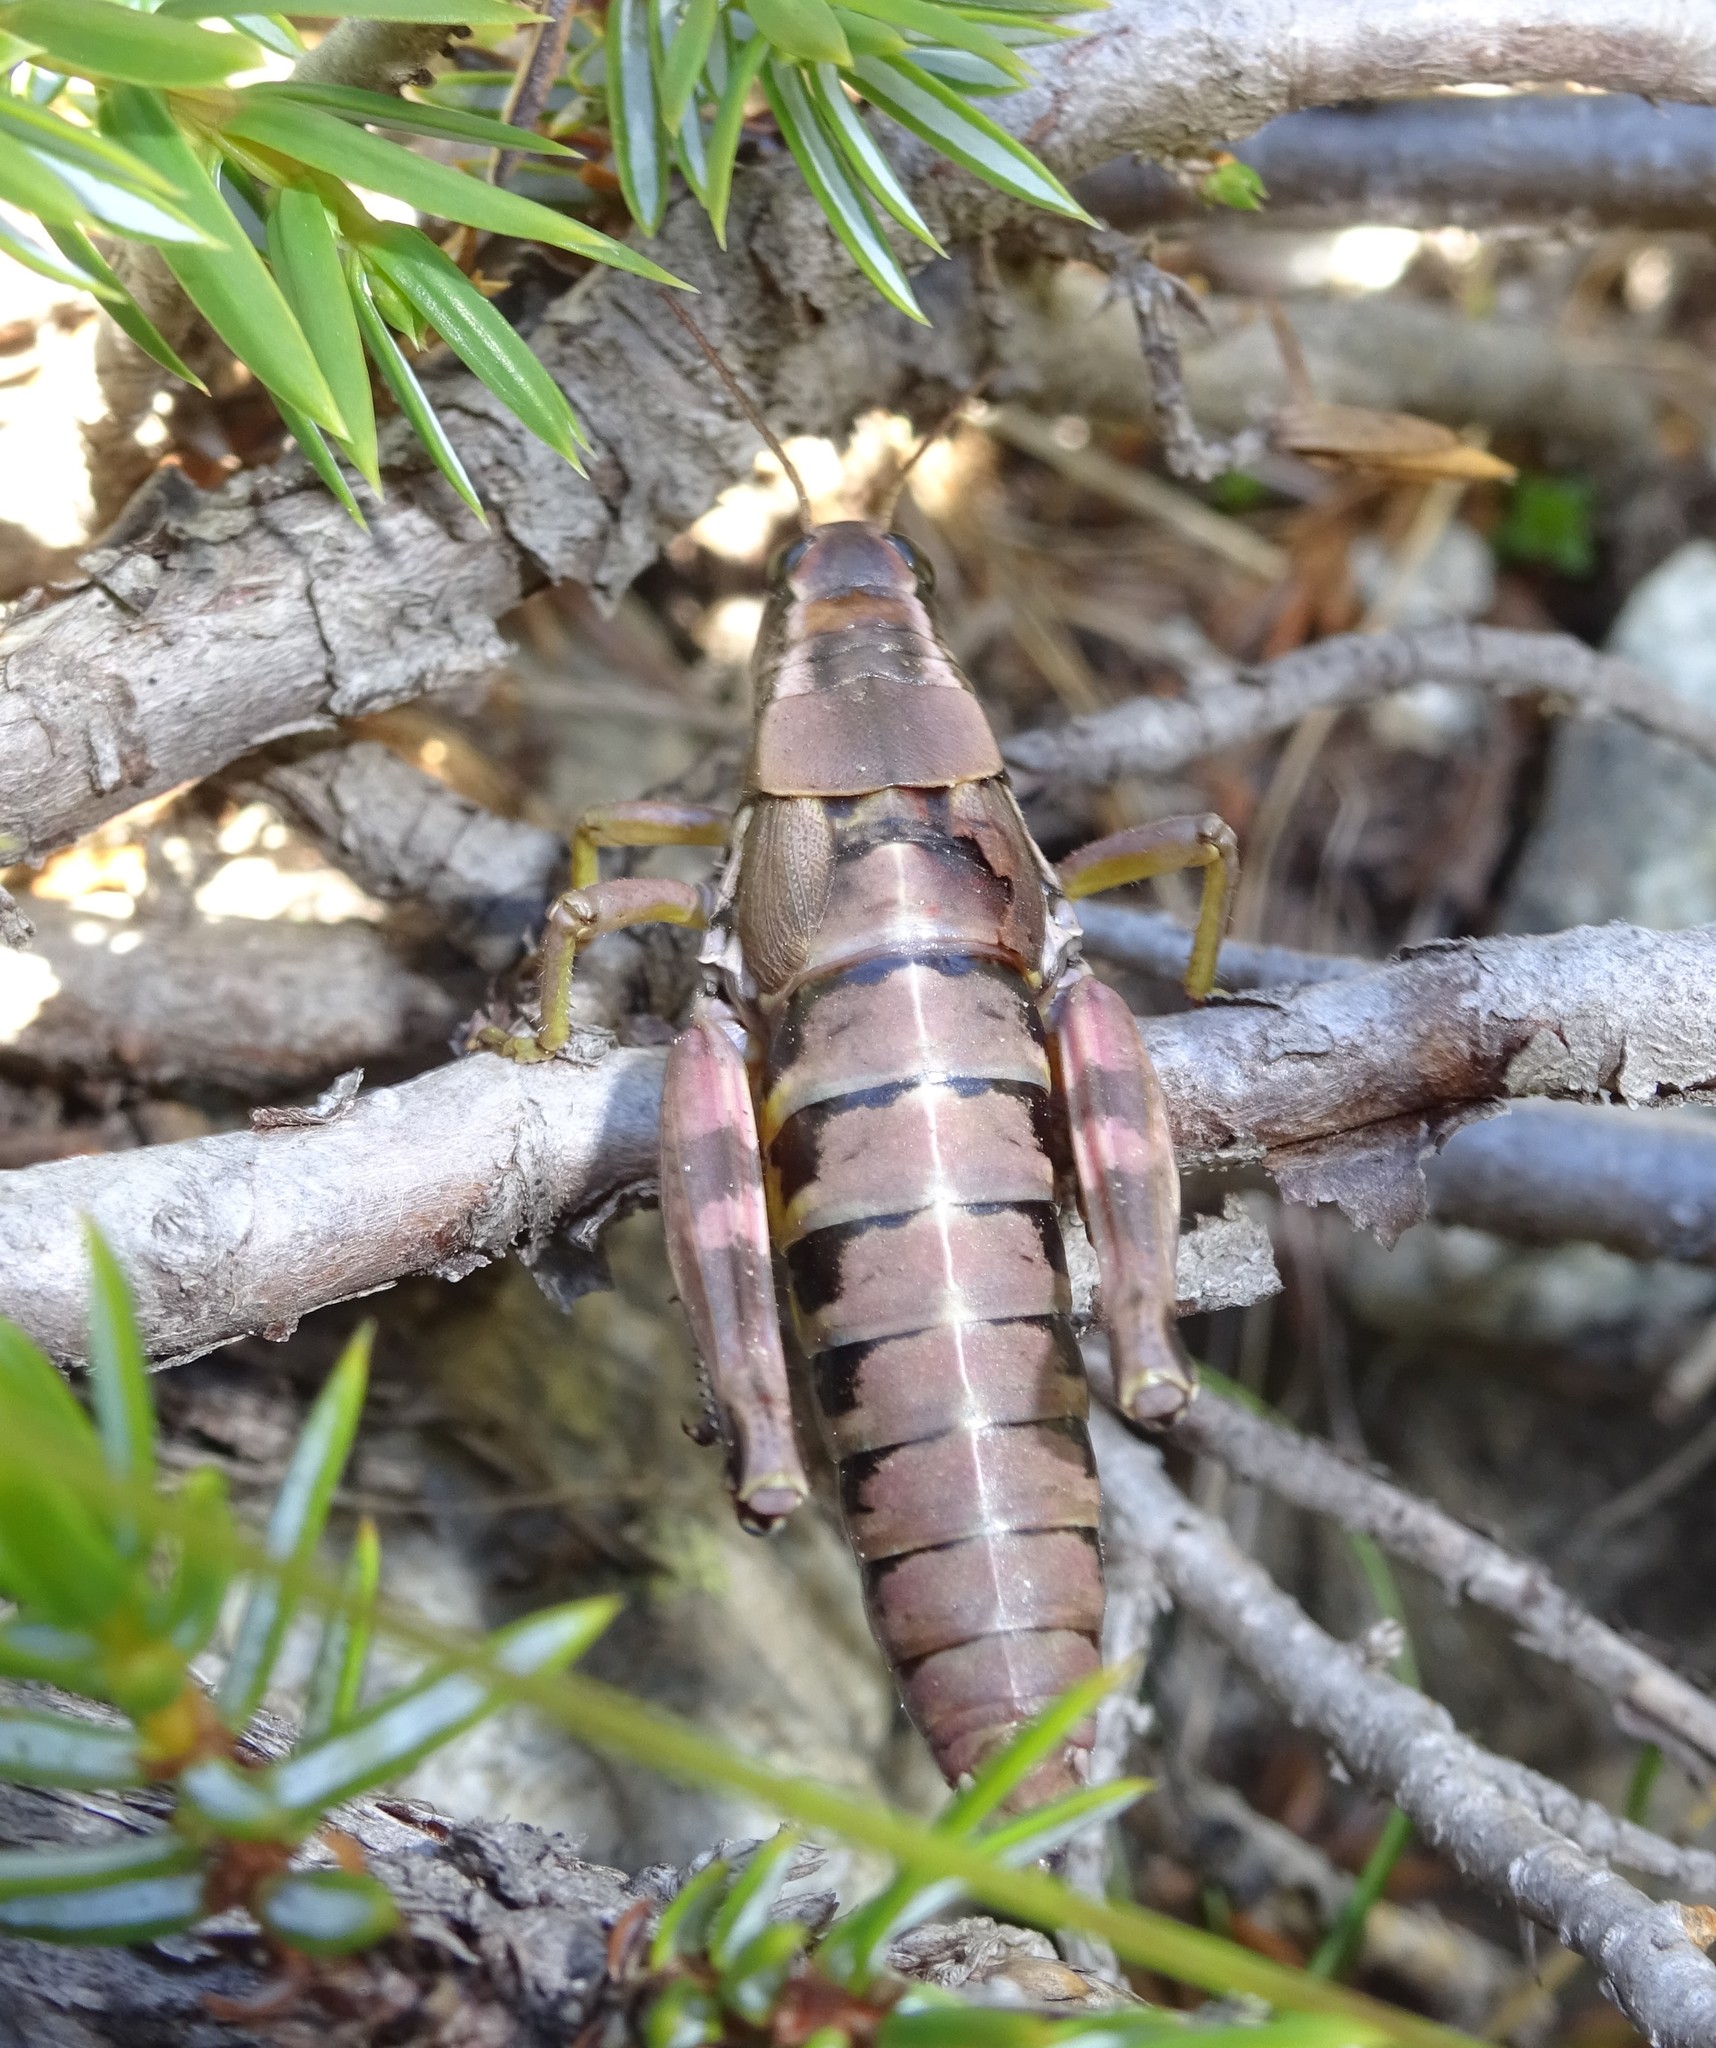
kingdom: Animalia
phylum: Arthropoda
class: Insecta
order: Orthoptera
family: Acrididae
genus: Podisma
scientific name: Podisma pedestris
